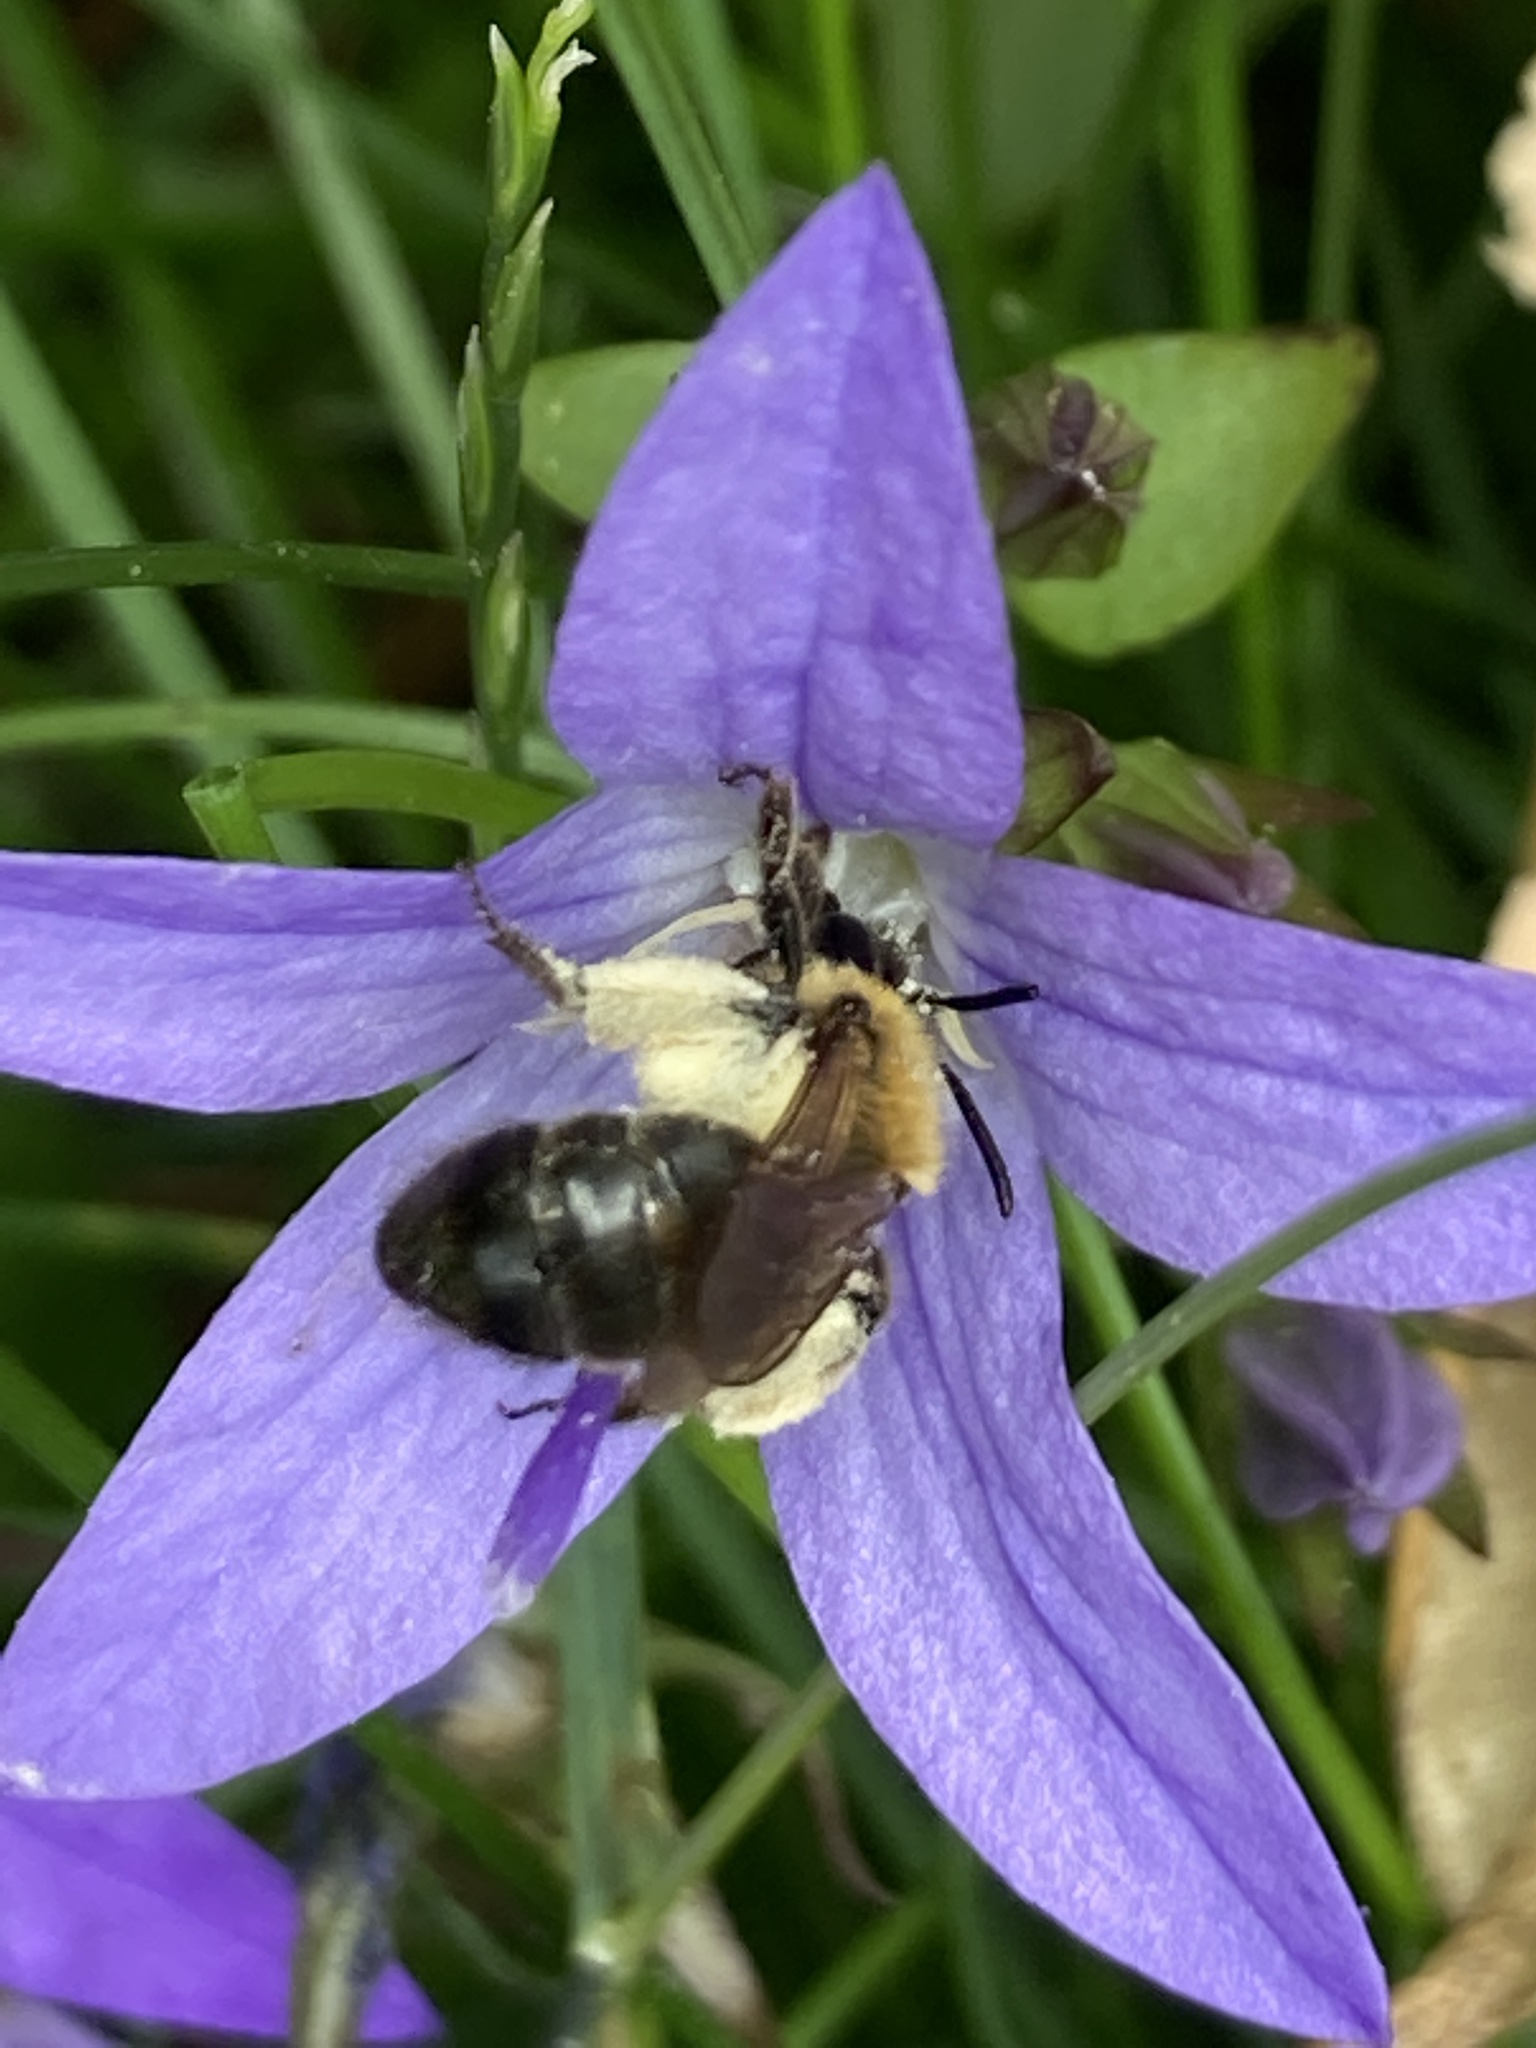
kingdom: Animalia
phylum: Arthropoda
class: Insecta
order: Hymenoptera
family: Andrenidae
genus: Andrena
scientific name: Andrena bicolor
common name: Gwynne's mining bee
